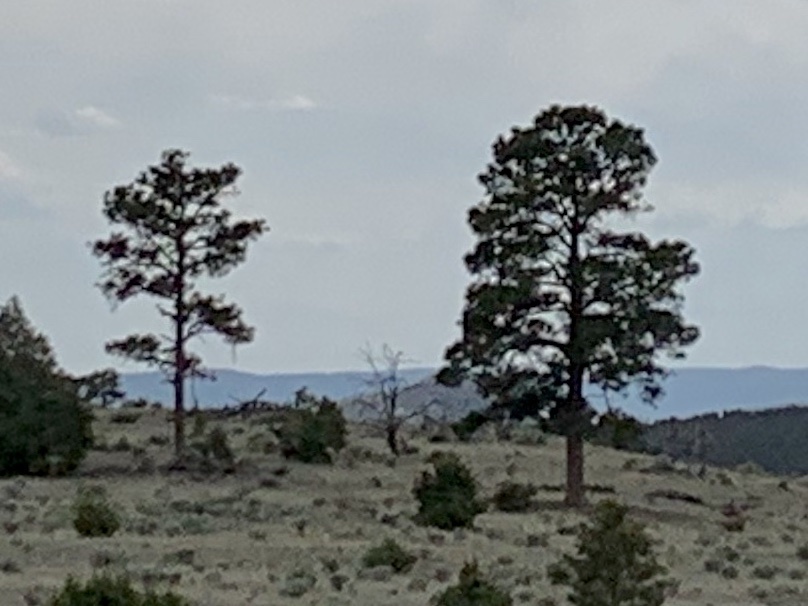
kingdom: Plantae
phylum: Tracheophyta
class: Pinopsida
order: Pinales
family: Pinaceae
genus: Pinus
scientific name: Pinus ponderosa
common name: Western yellow-pine
